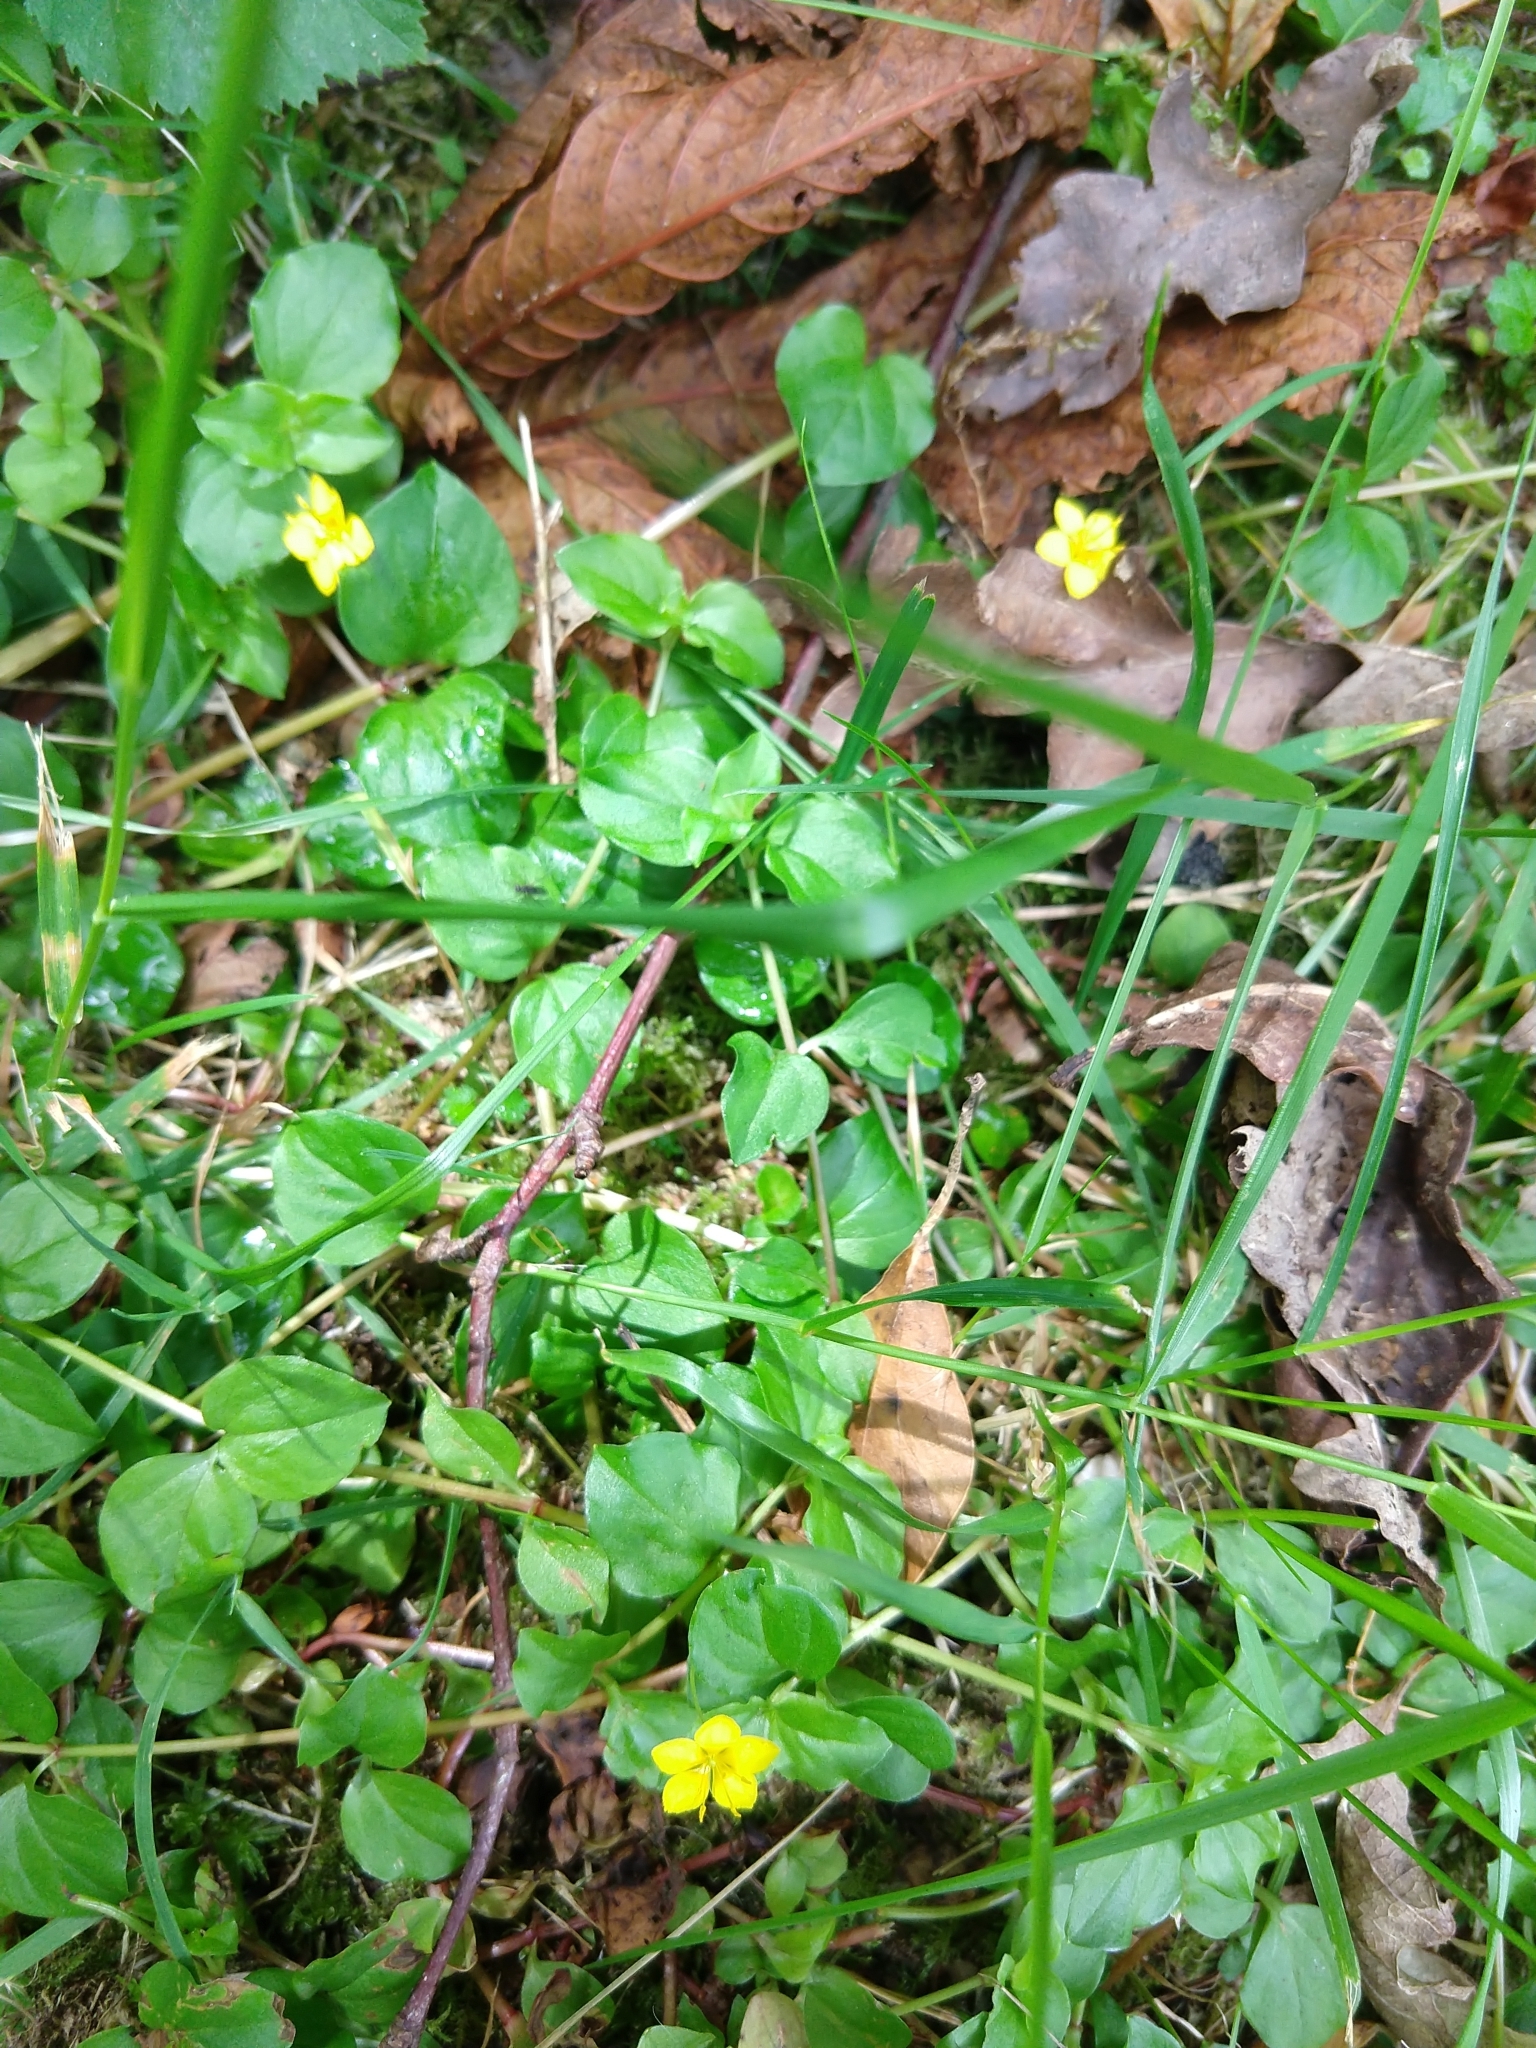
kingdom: Plantae
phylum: Tracheophyta
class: Magnoliopsida
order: Ericales
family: Primulaceae
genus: Lysimachia
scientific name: Lysimachia nemorum
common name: Yellow pimpernel
